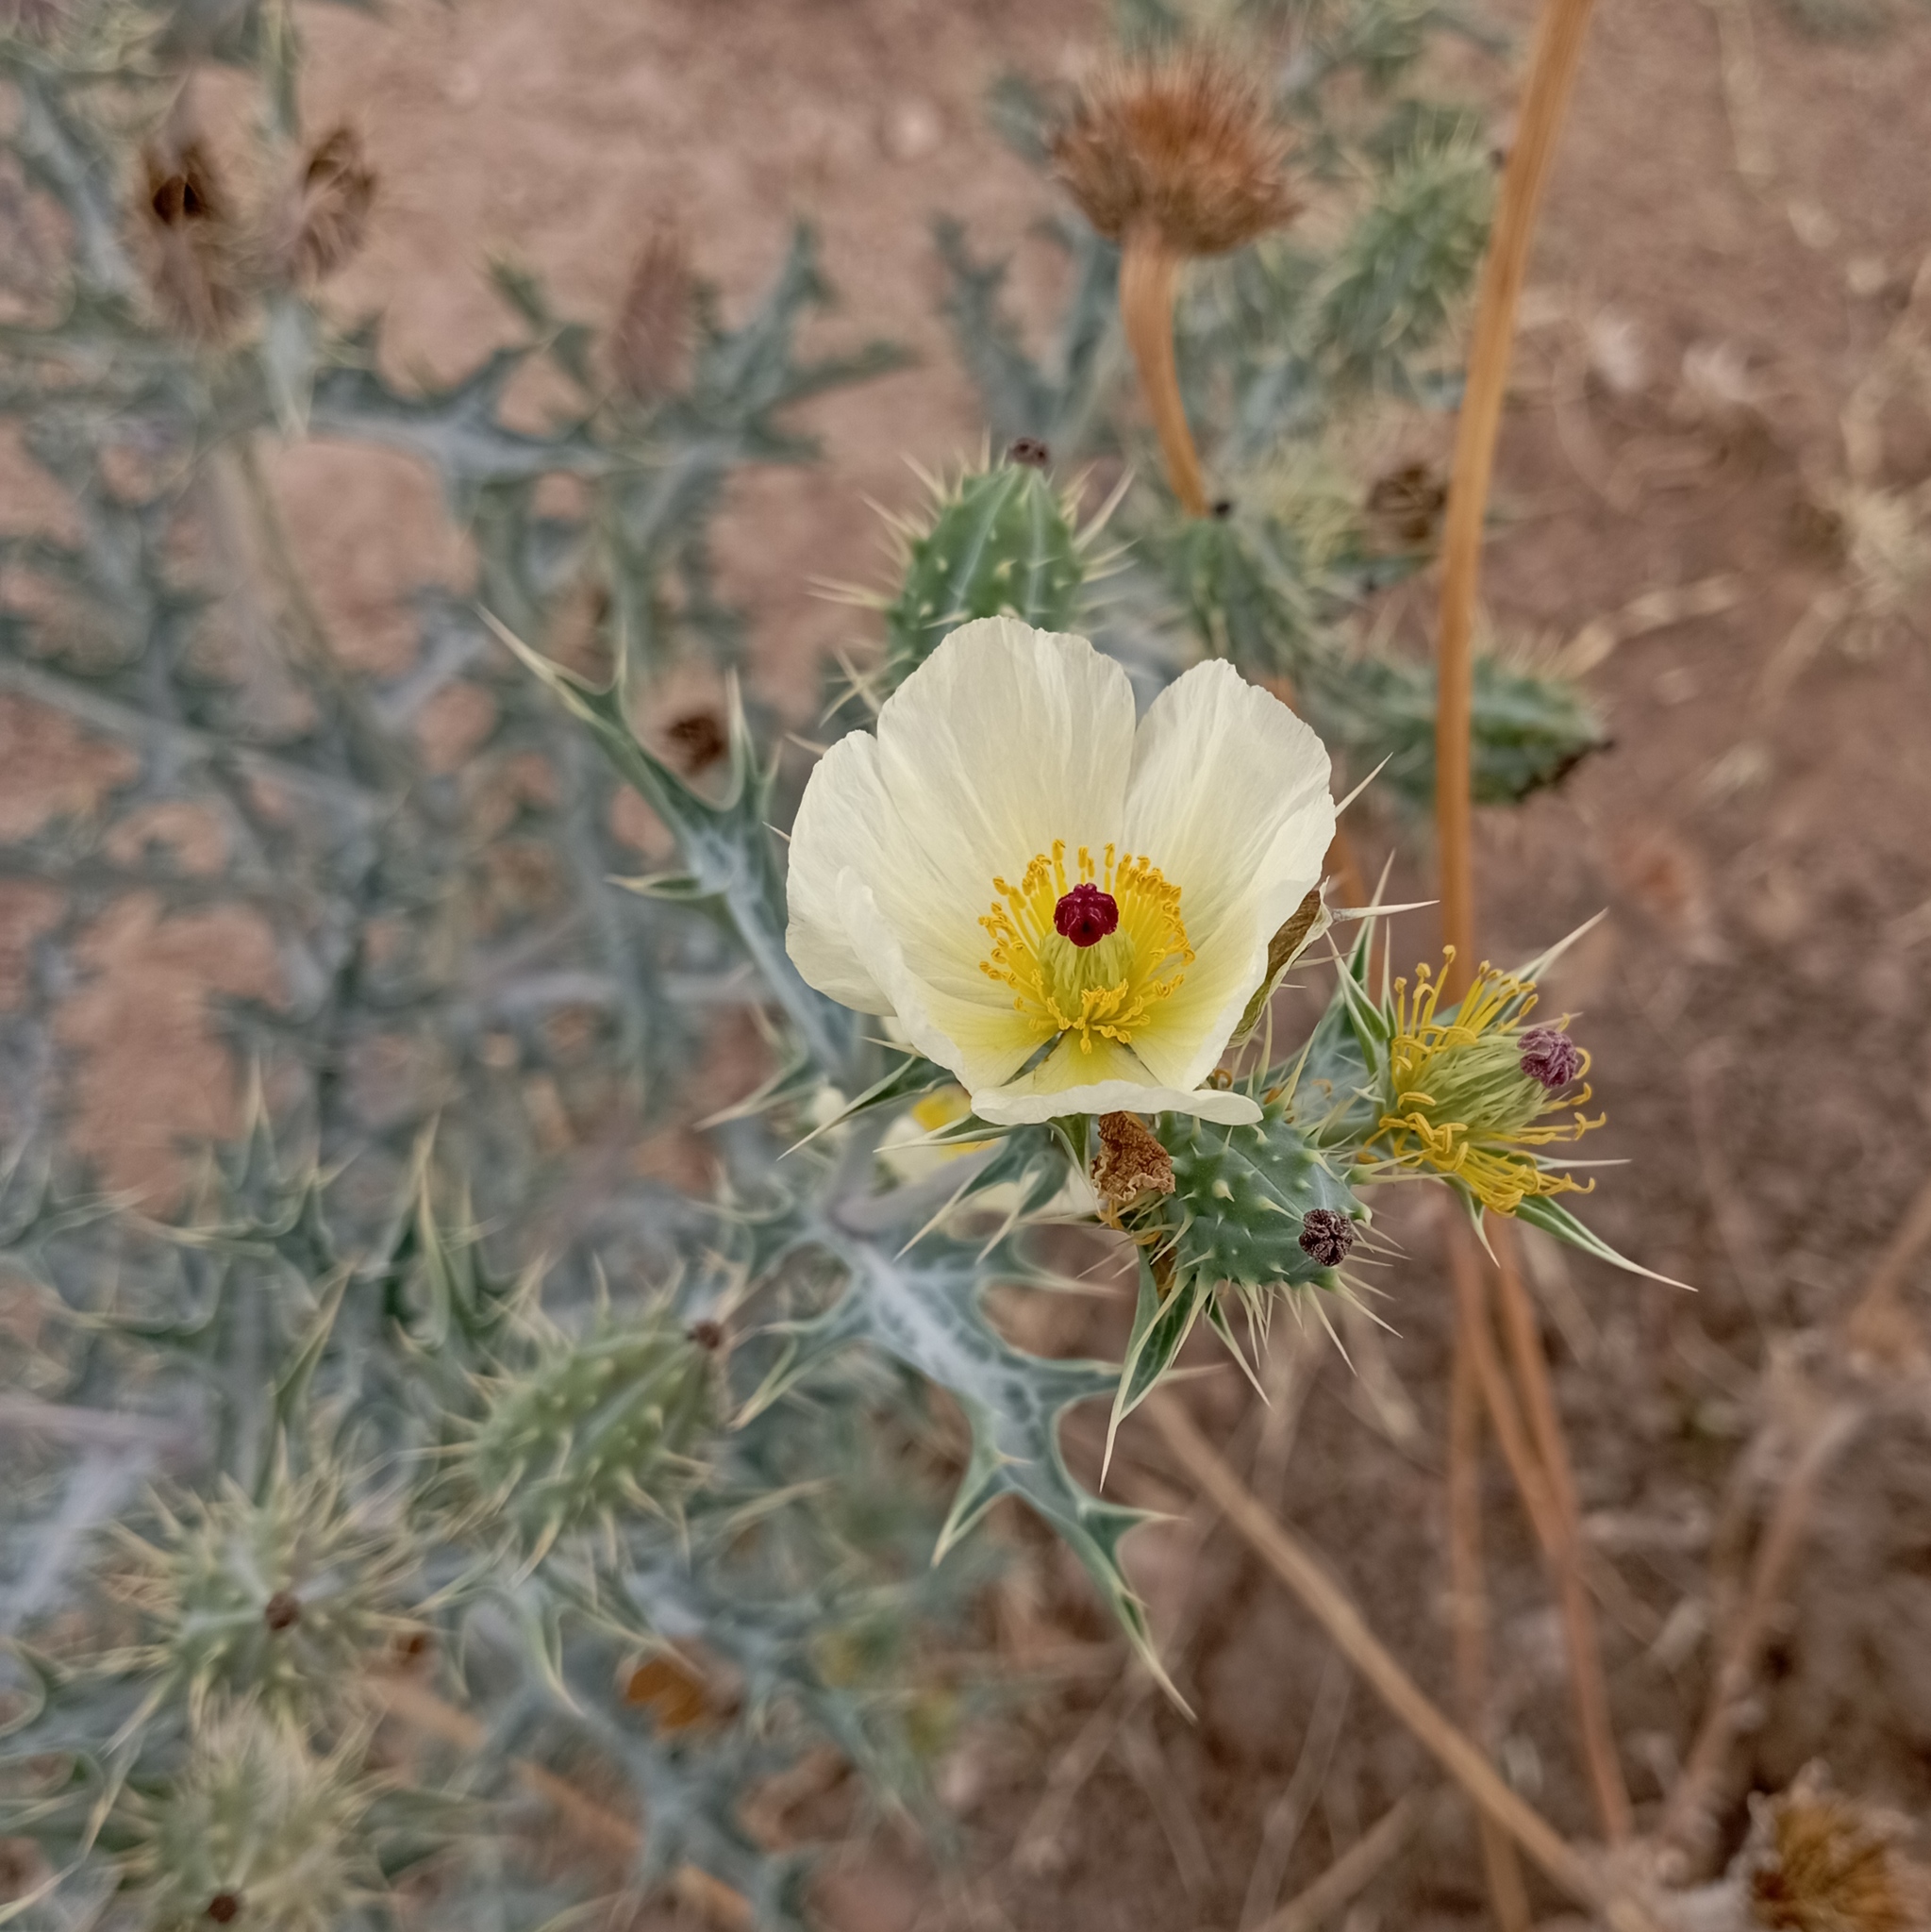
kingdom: Plantae
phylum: Tracheophyta
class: Magnoliopsida
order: Ranunculales
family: Papaveraceae
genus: Argemone
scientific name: Argemone ochroleuca
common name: White-flower mexican-poppy
